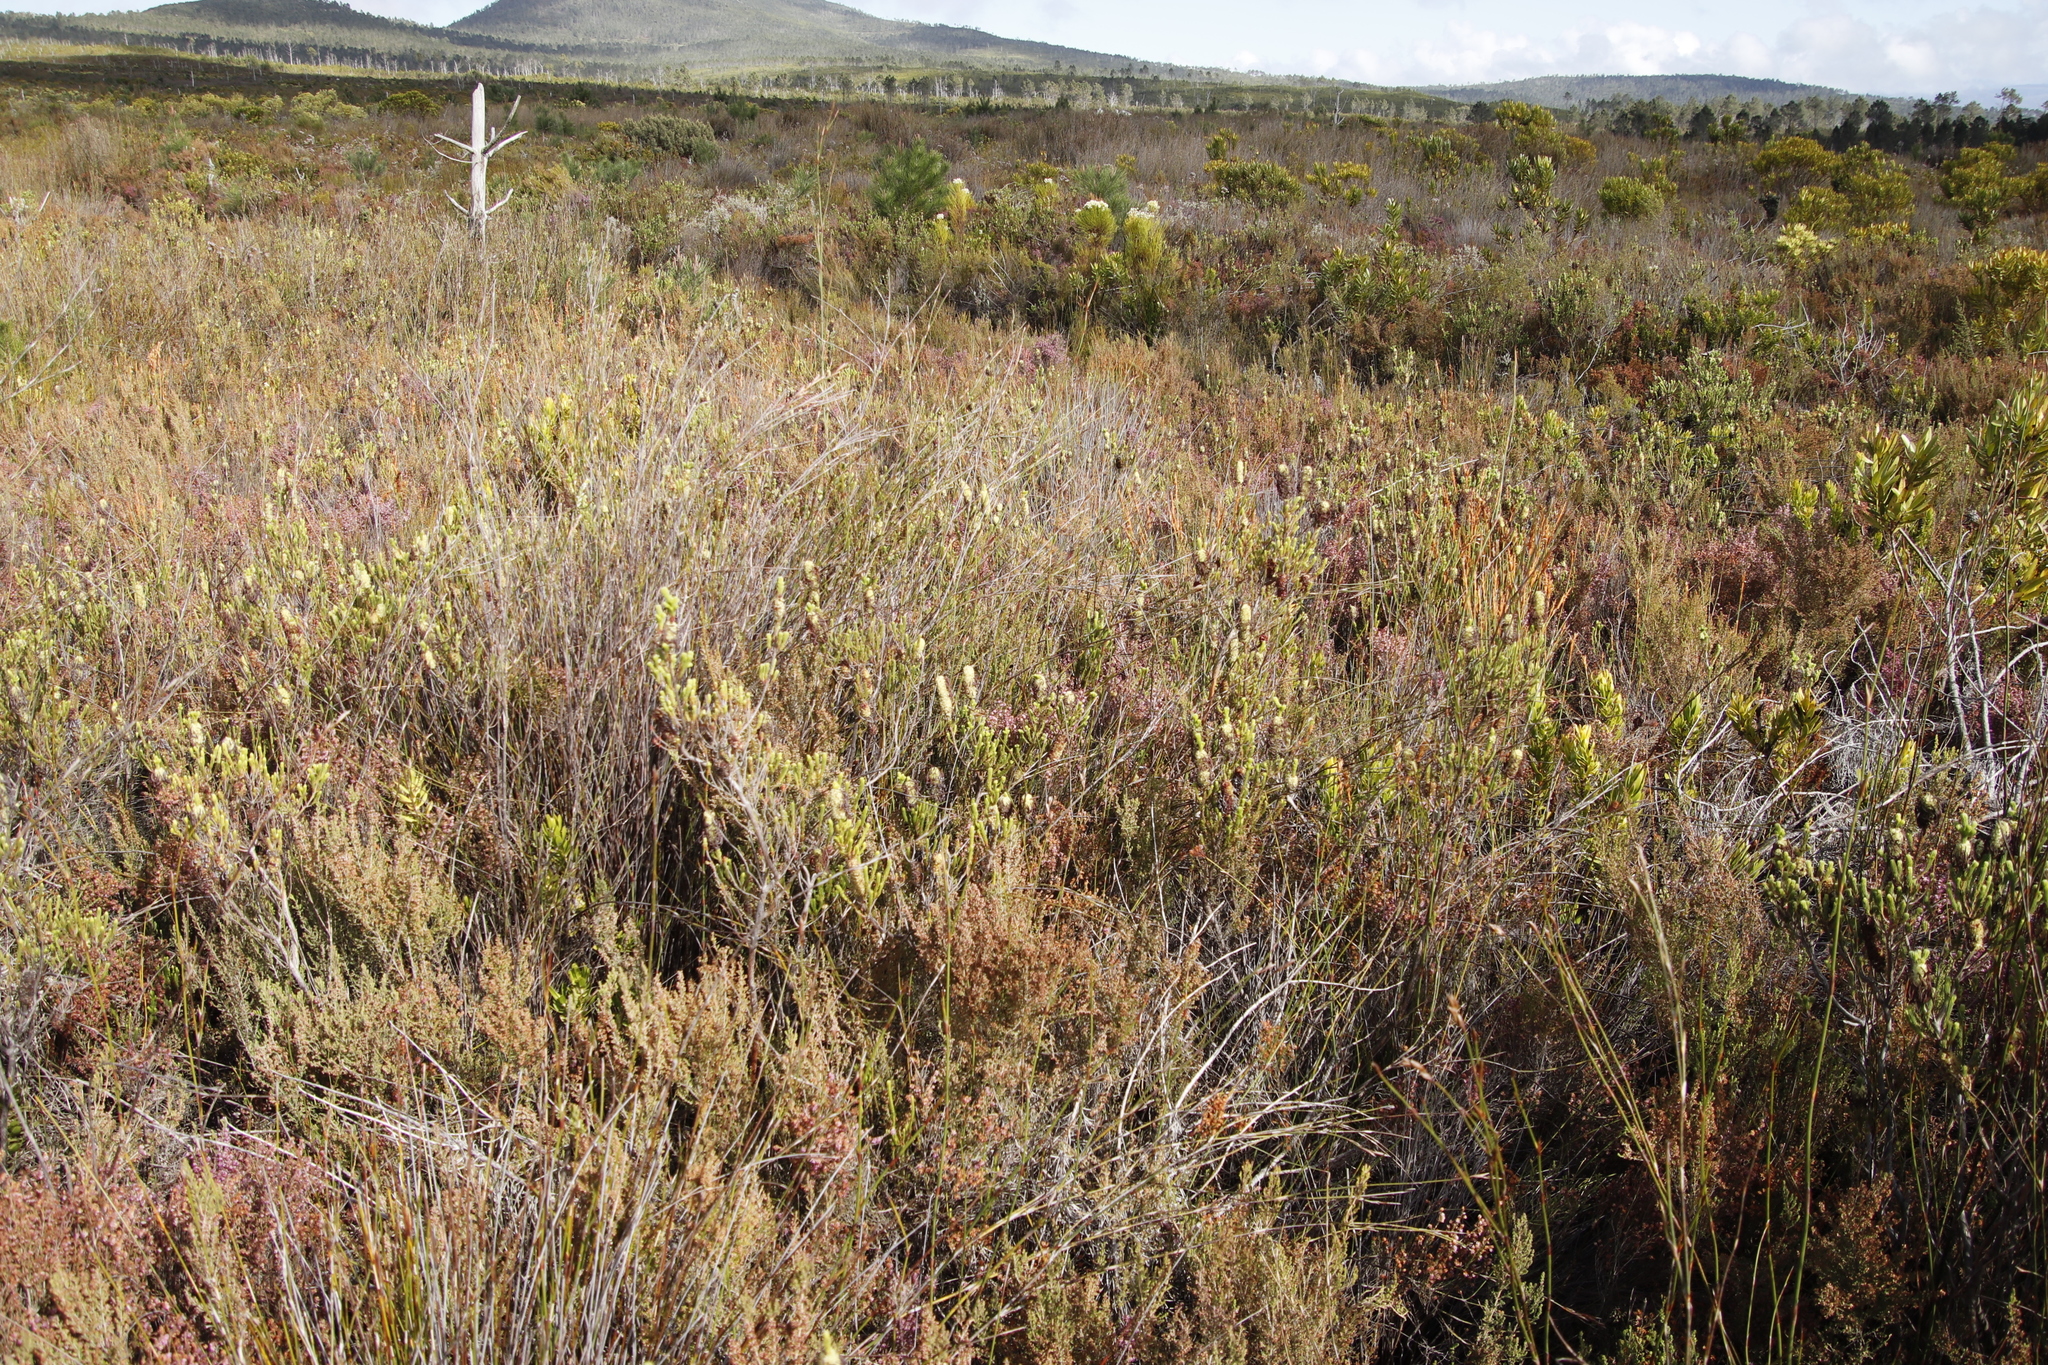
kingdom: Plantae
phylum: Tracheophyta
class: Magnoliopsida
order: Ericales
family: Ericaceae
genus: Erica
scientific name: Erica sessiliflora
